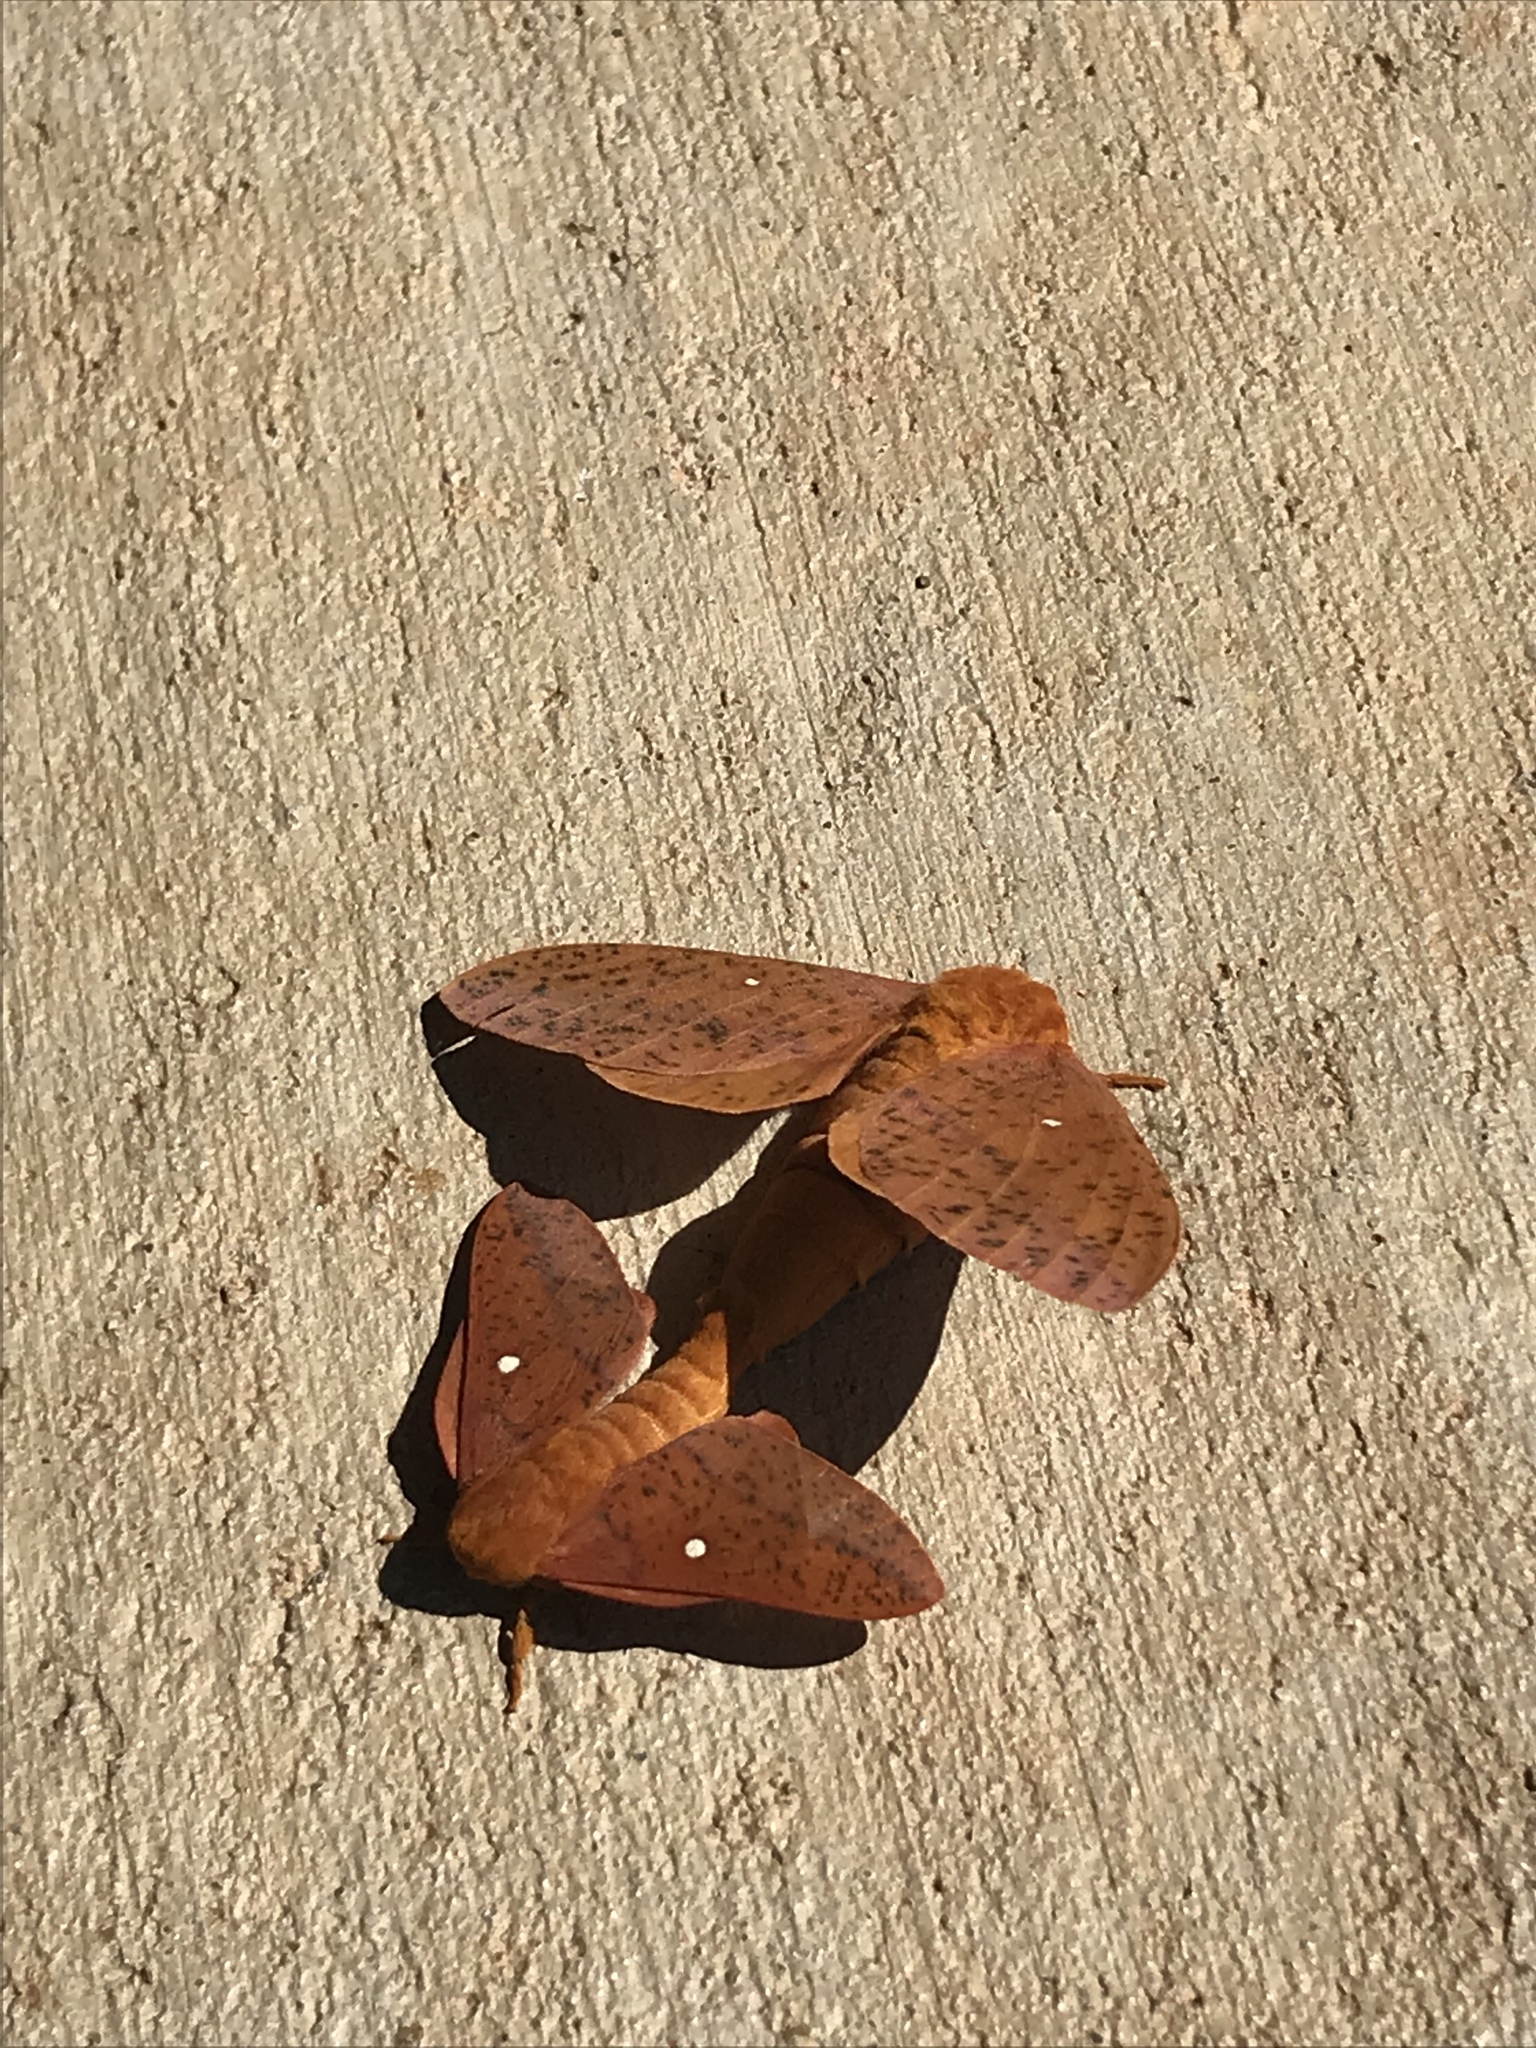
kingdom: Animalia
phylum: Arthropoda
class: Insecta
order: Lepidoptera
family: Saturniidae
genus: Anisota
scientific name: Anisota stigma
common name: Spiny oakworm moth
